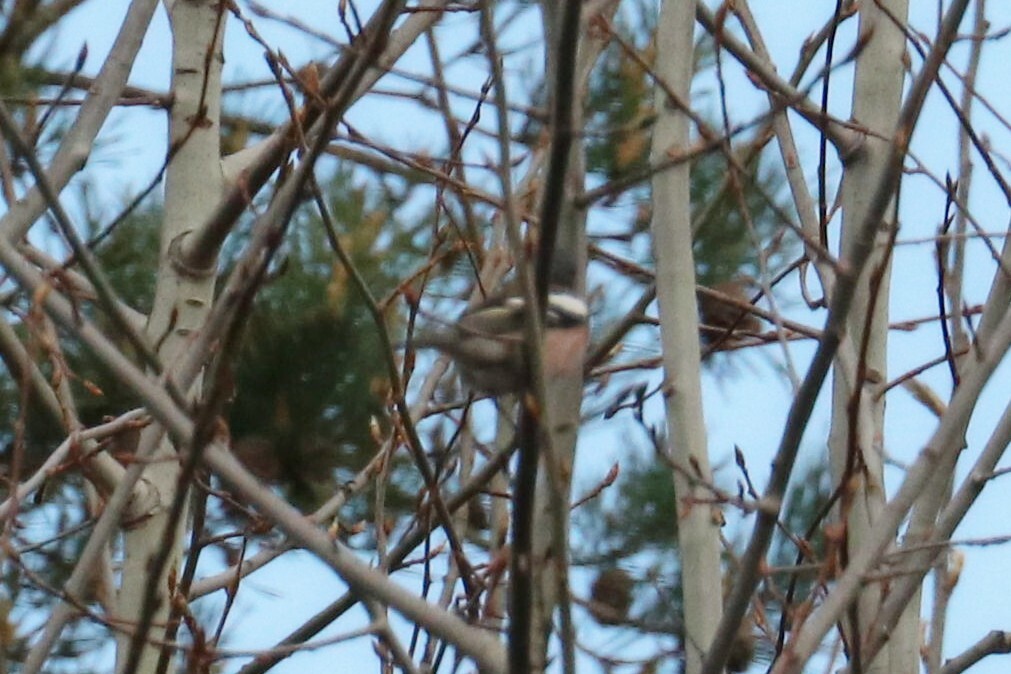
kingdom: Animalia
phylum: Chordata
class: Aves
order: Passeriformes
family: Fringillidae
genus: Fringilla
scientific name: Fringilla coelebs
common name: Common chaffinch
